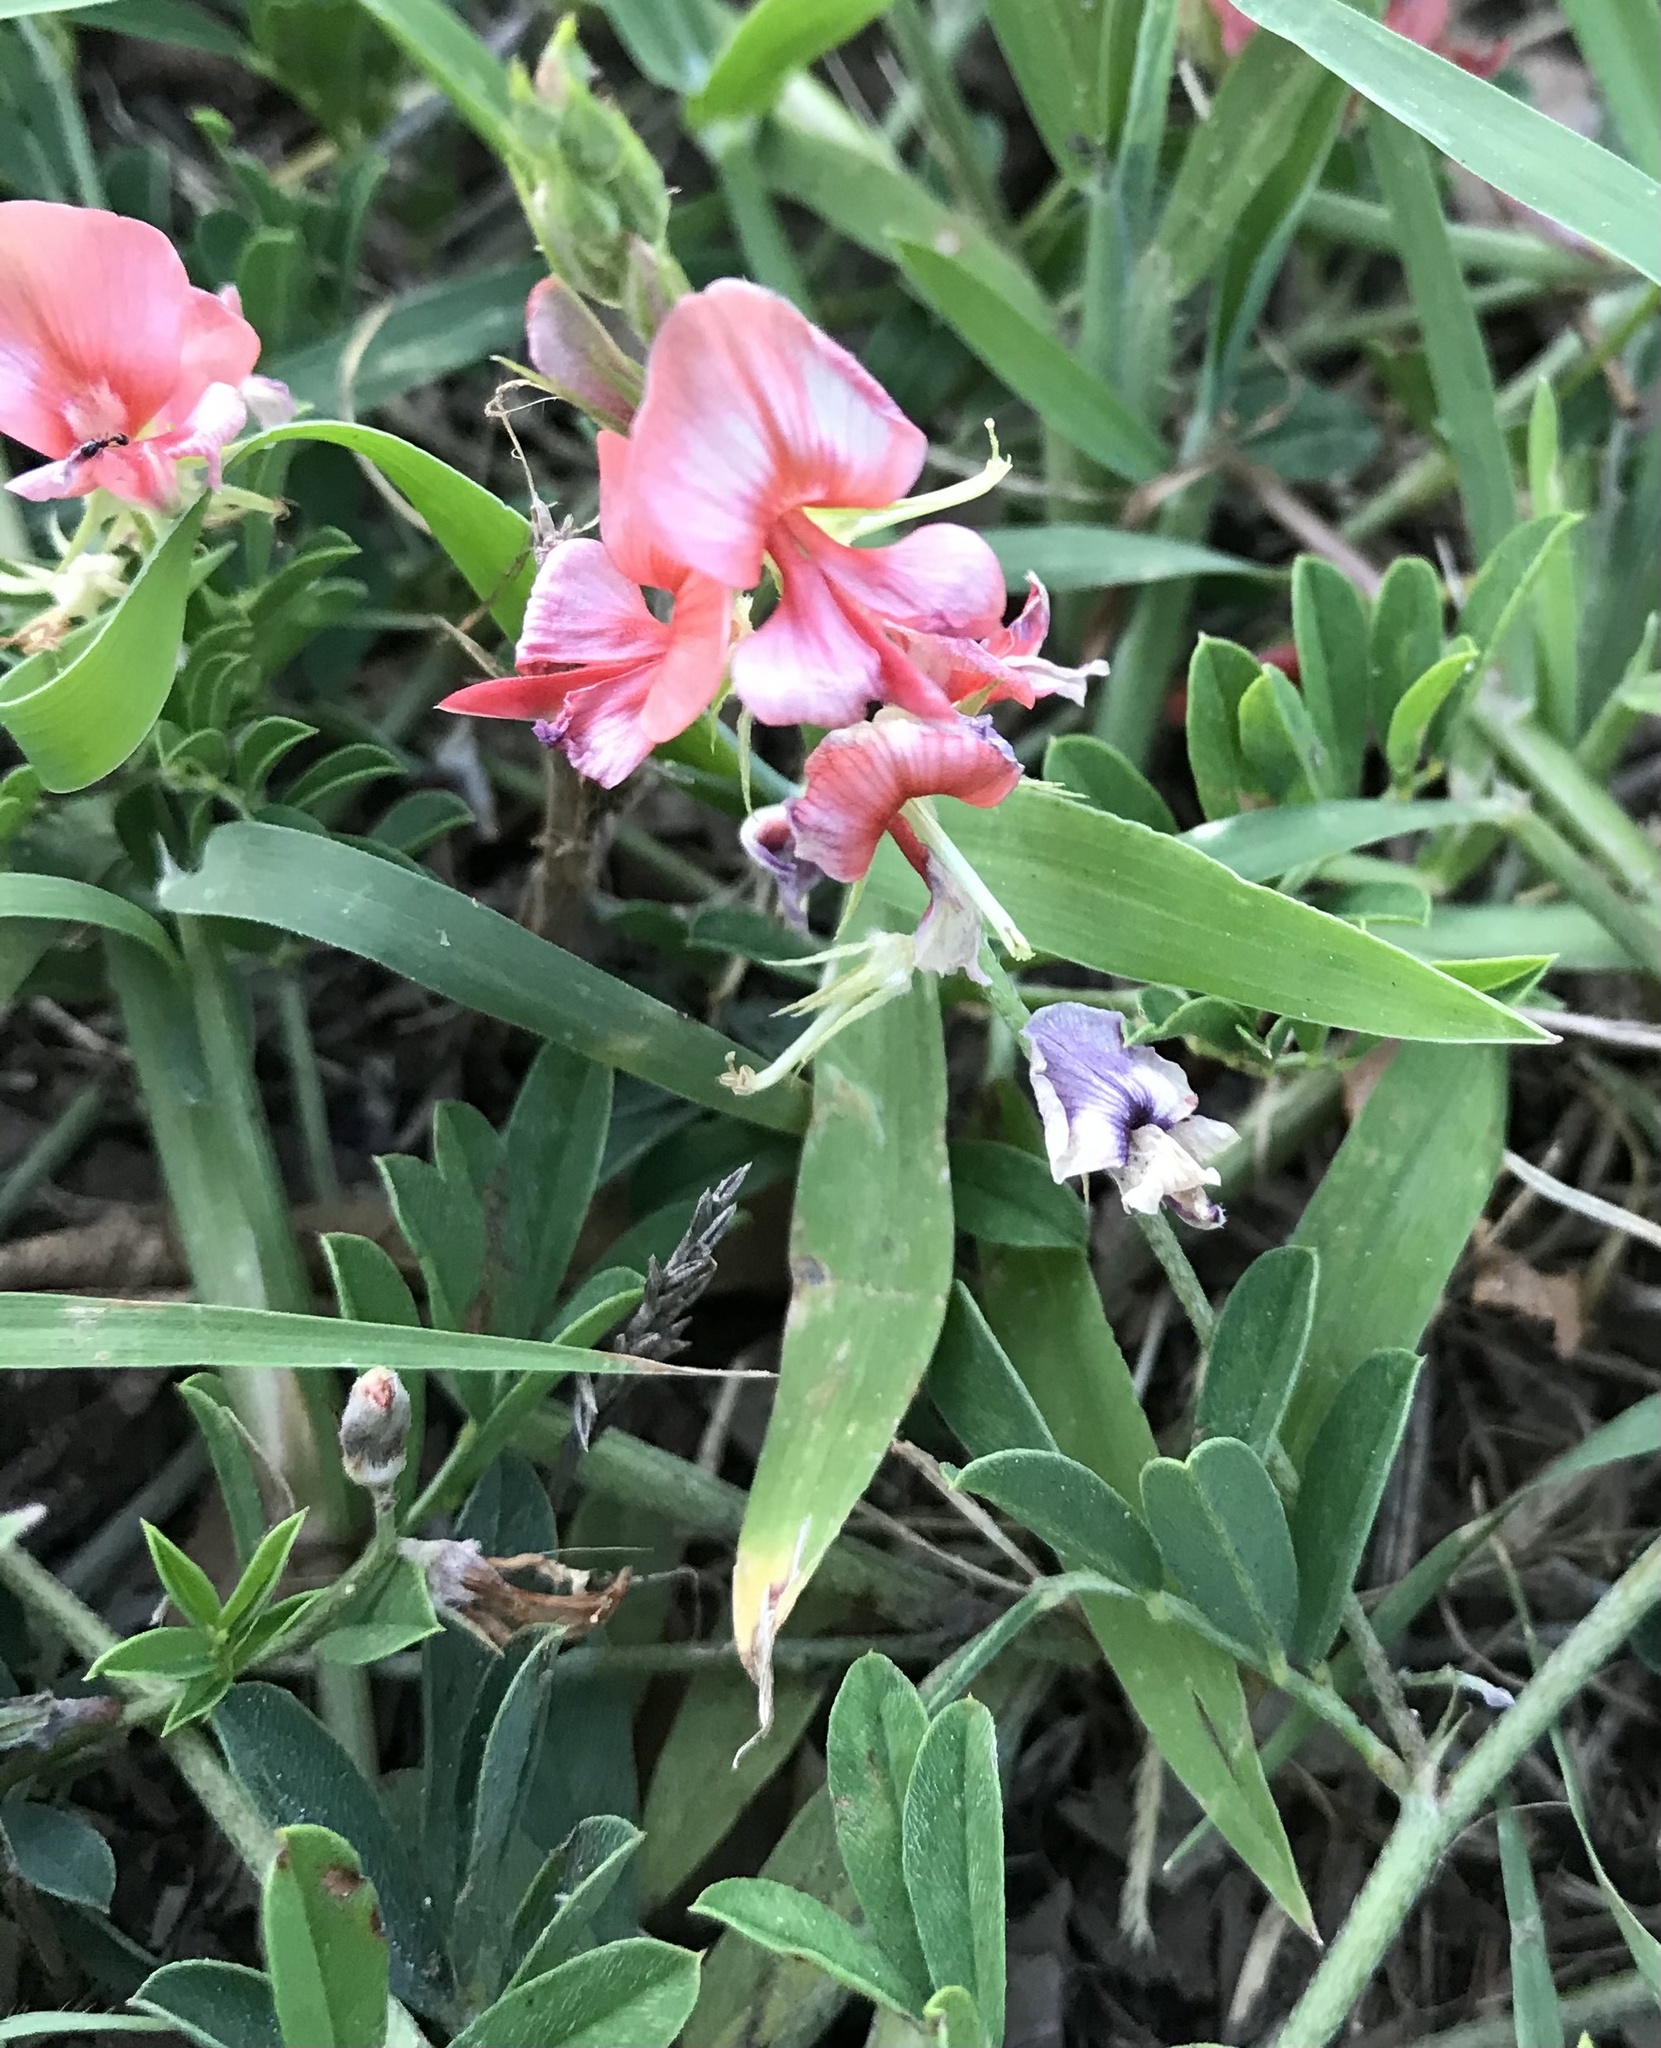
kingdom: Plantae
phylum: Tracheophyta
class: Magnoliopsida
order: Fabales
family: Fabaceae
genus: Indigofera
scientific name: Indigofera miniata
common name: Coast indigo
